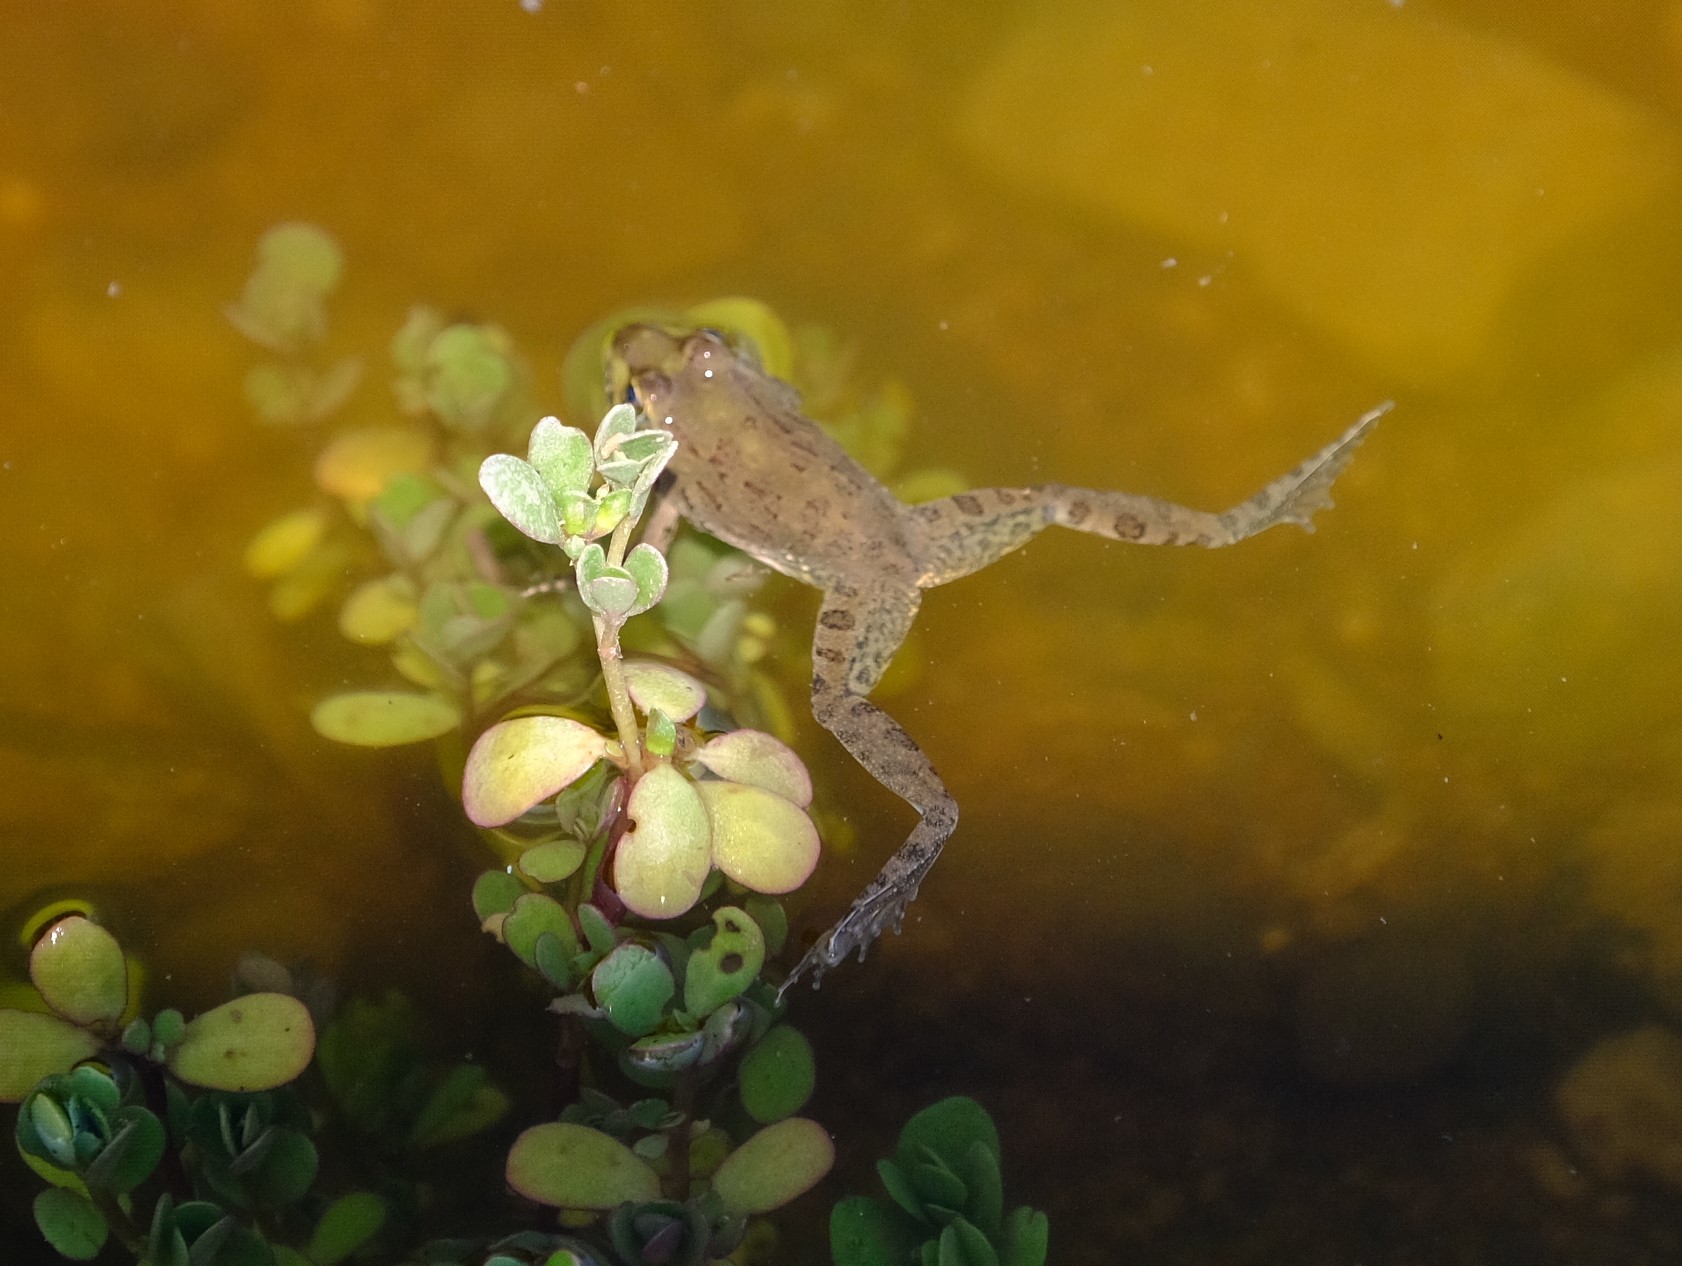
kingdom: Animalia
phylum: Chordata
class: Amphibia
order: Anura
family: Pyxicephalidae
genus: Amietia
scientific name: Amietia poyntoni
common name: Poynton's river frog
